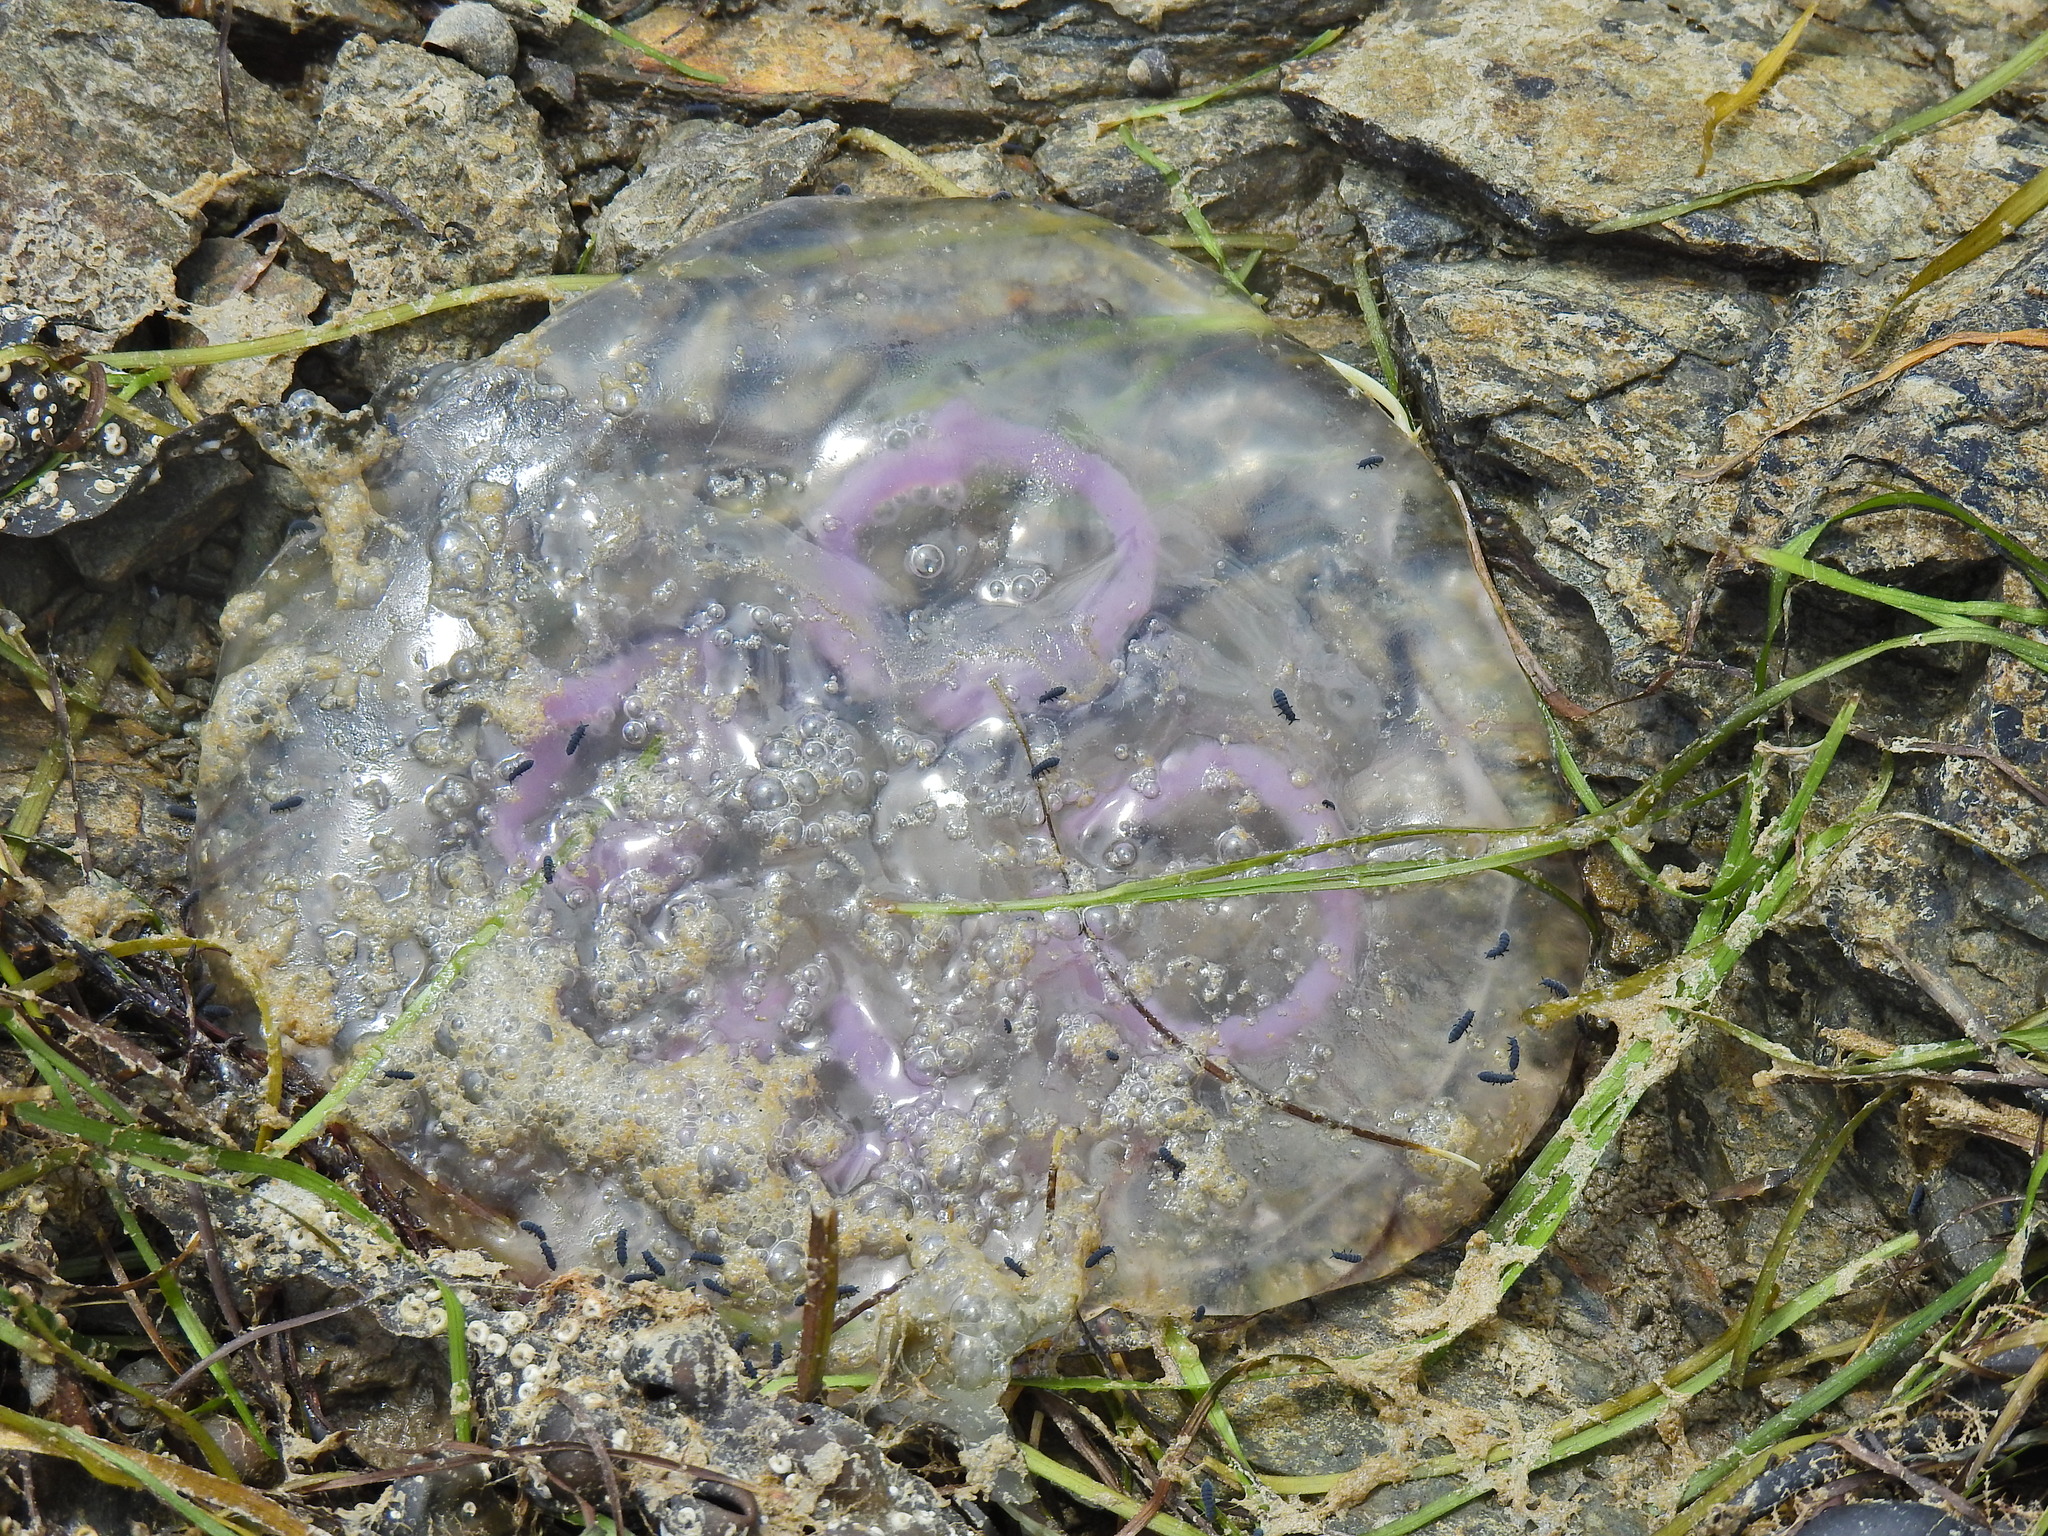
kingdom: Animalia
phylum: Cnidaria
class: Scyphozoa
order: Semaeostomeae
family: Ulmaridae
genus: Aurelia
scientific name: Aurelia aurita
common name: Moon jellyfish
